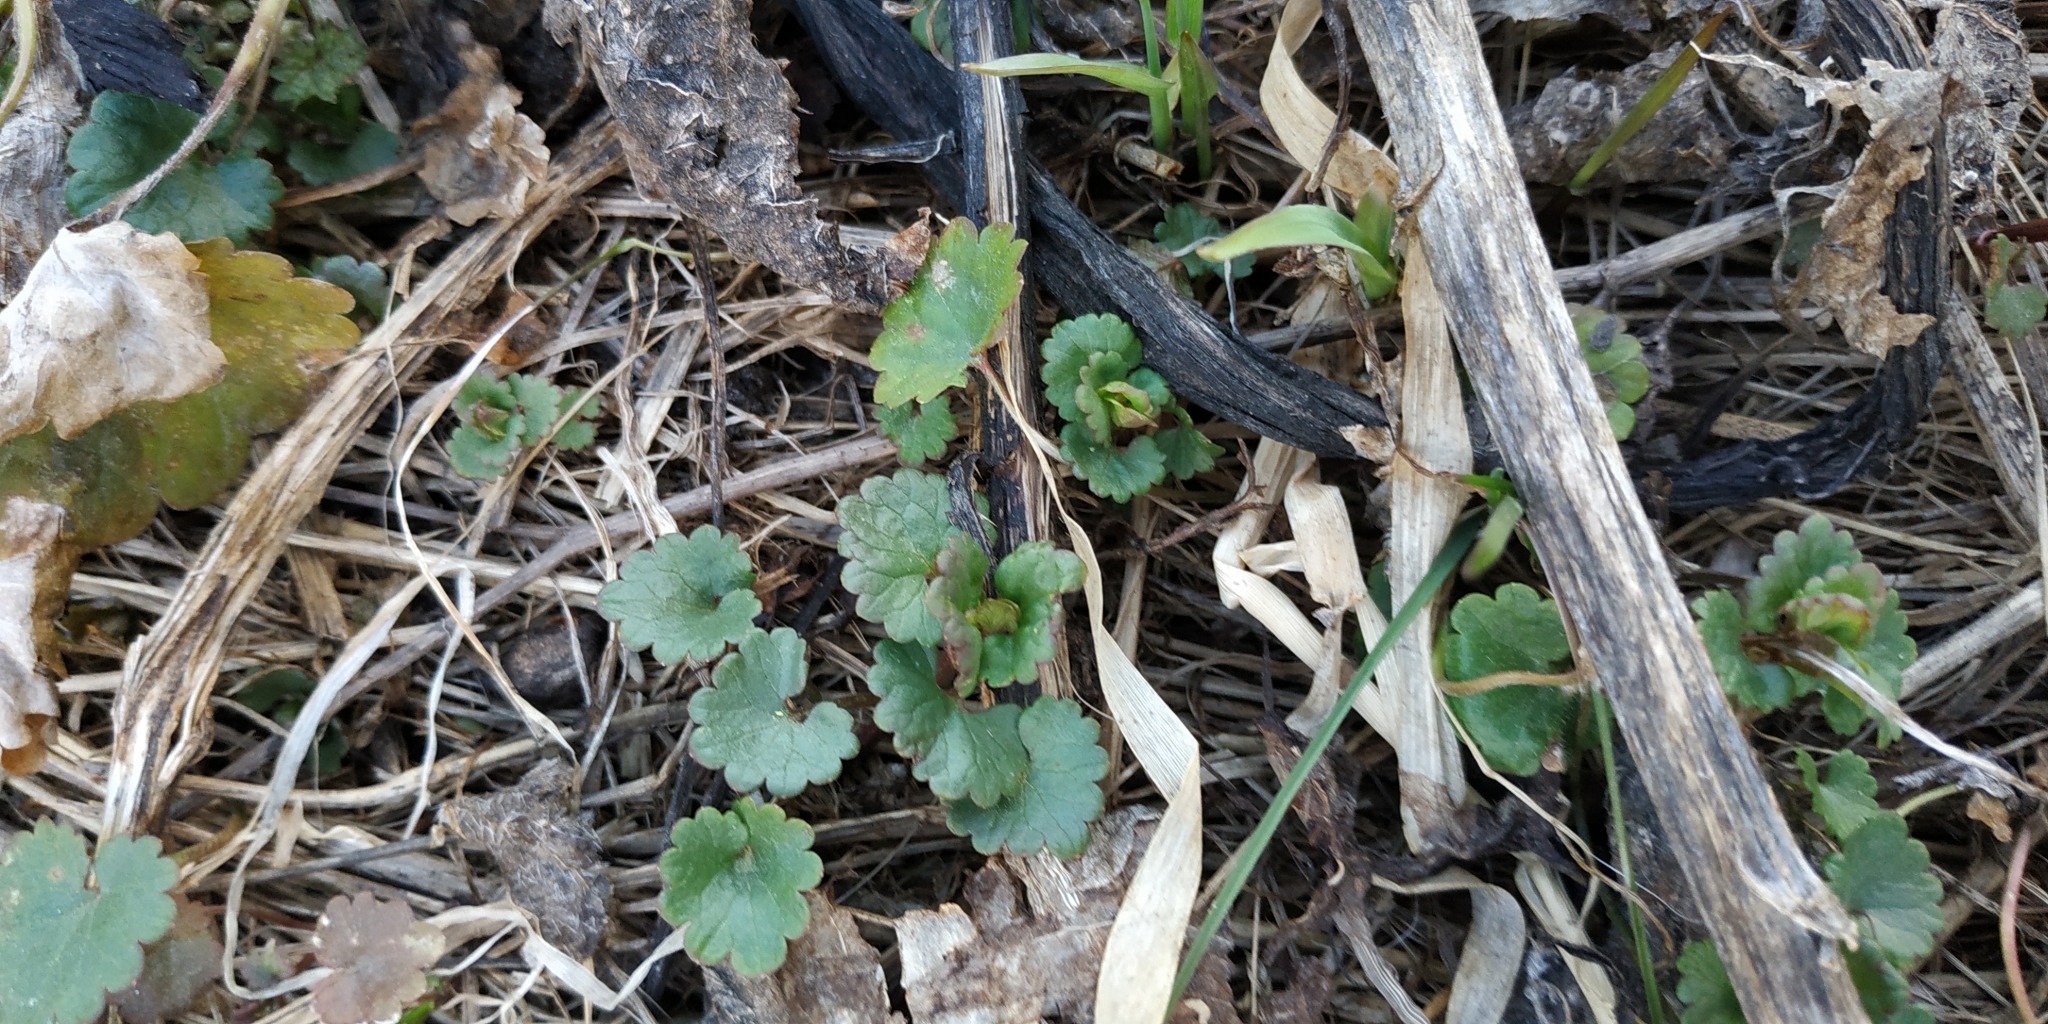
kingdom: Plantae
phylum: Tracheophyta
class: Magnoliopsida
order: Lamiales
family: Lamiaceae
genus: Glechoma
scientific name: Glechoma hederacea
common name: Ground ivy
